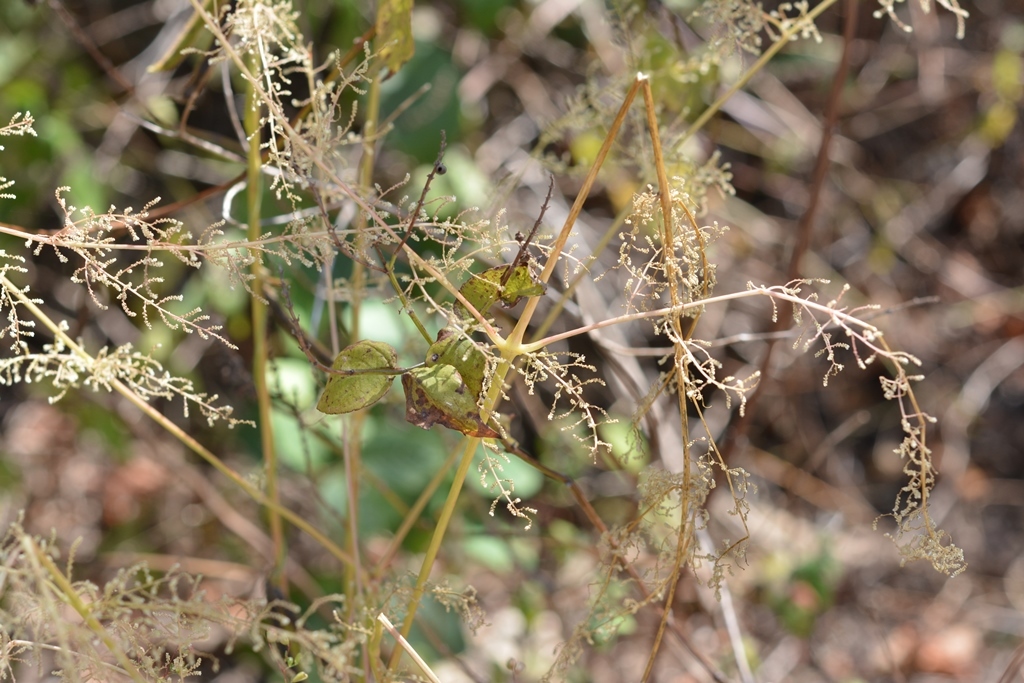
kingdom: Plantae
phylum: Tracheophyta
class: Magnoliopsida
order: Caryophyllales
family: Amaranthaceae
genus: Iresine
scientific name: Iresine diffusa
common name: Juba's-bush
